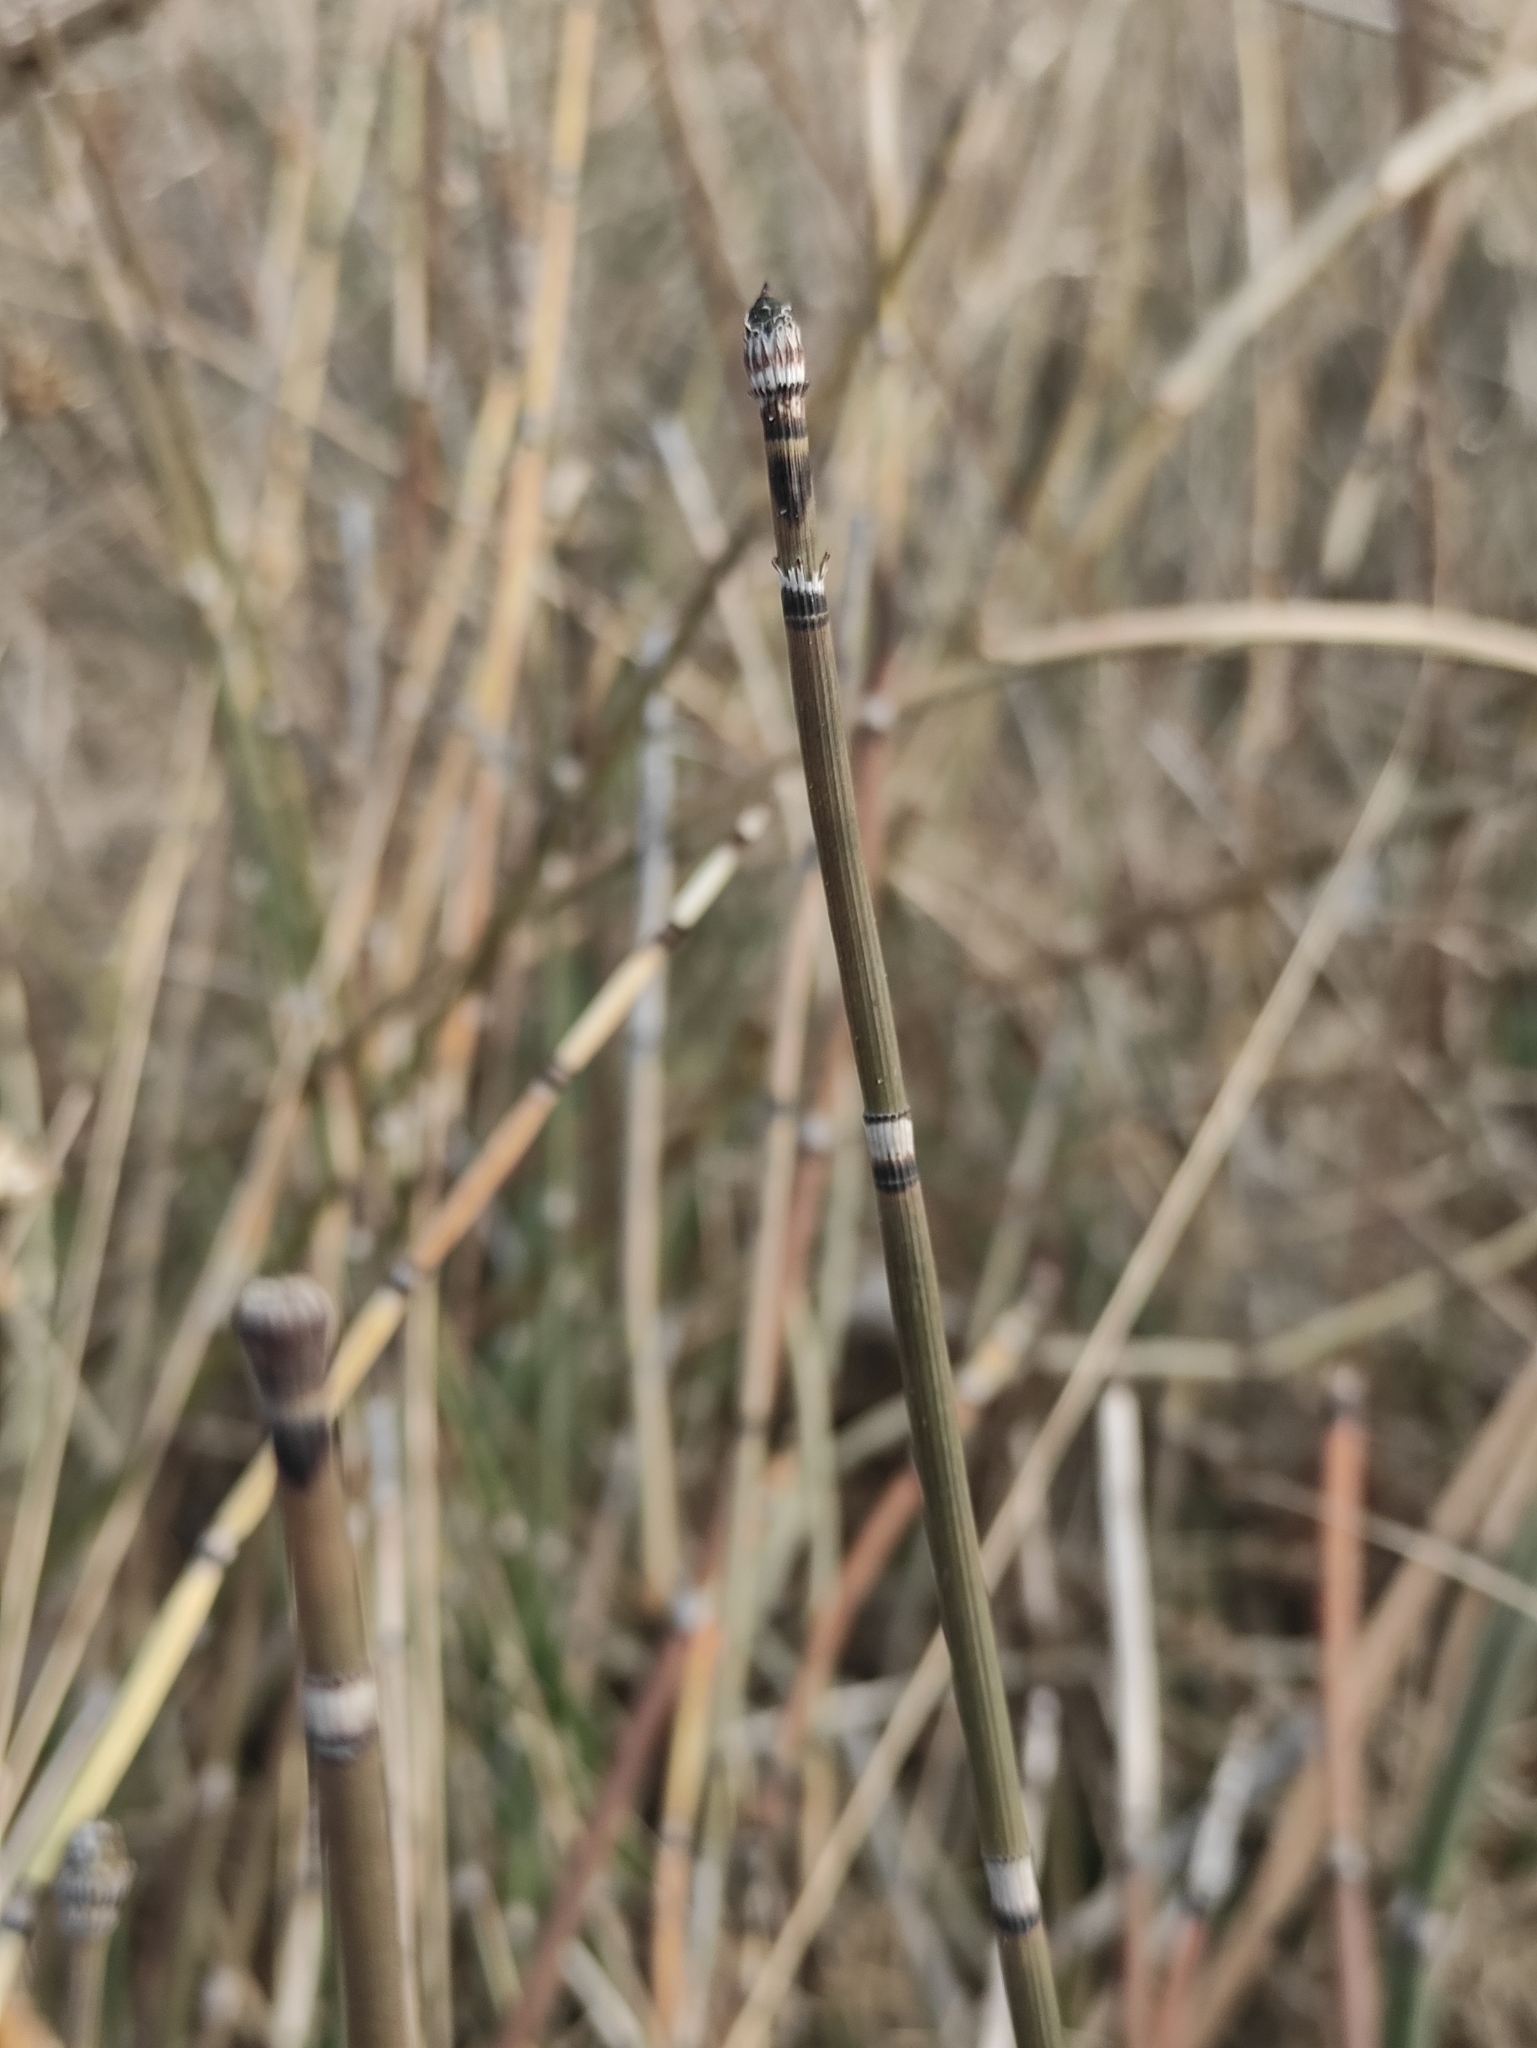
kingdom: Plantae
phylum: Tracheophyta
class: Polypodiopsida
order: Equisetales
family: Equisetaceae
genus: Equisetum
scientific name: Equisetum hyemale
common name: Rough horsetail
